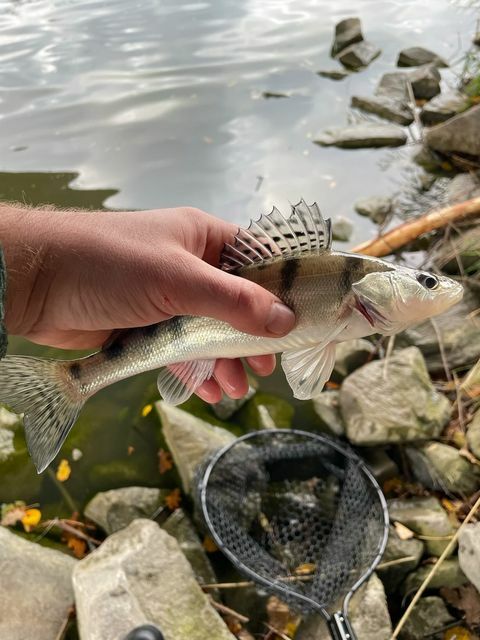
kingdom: Animalia
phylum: Chordata
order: Perciformes
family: Percidae
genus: Sander
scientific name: Sander volgensis
